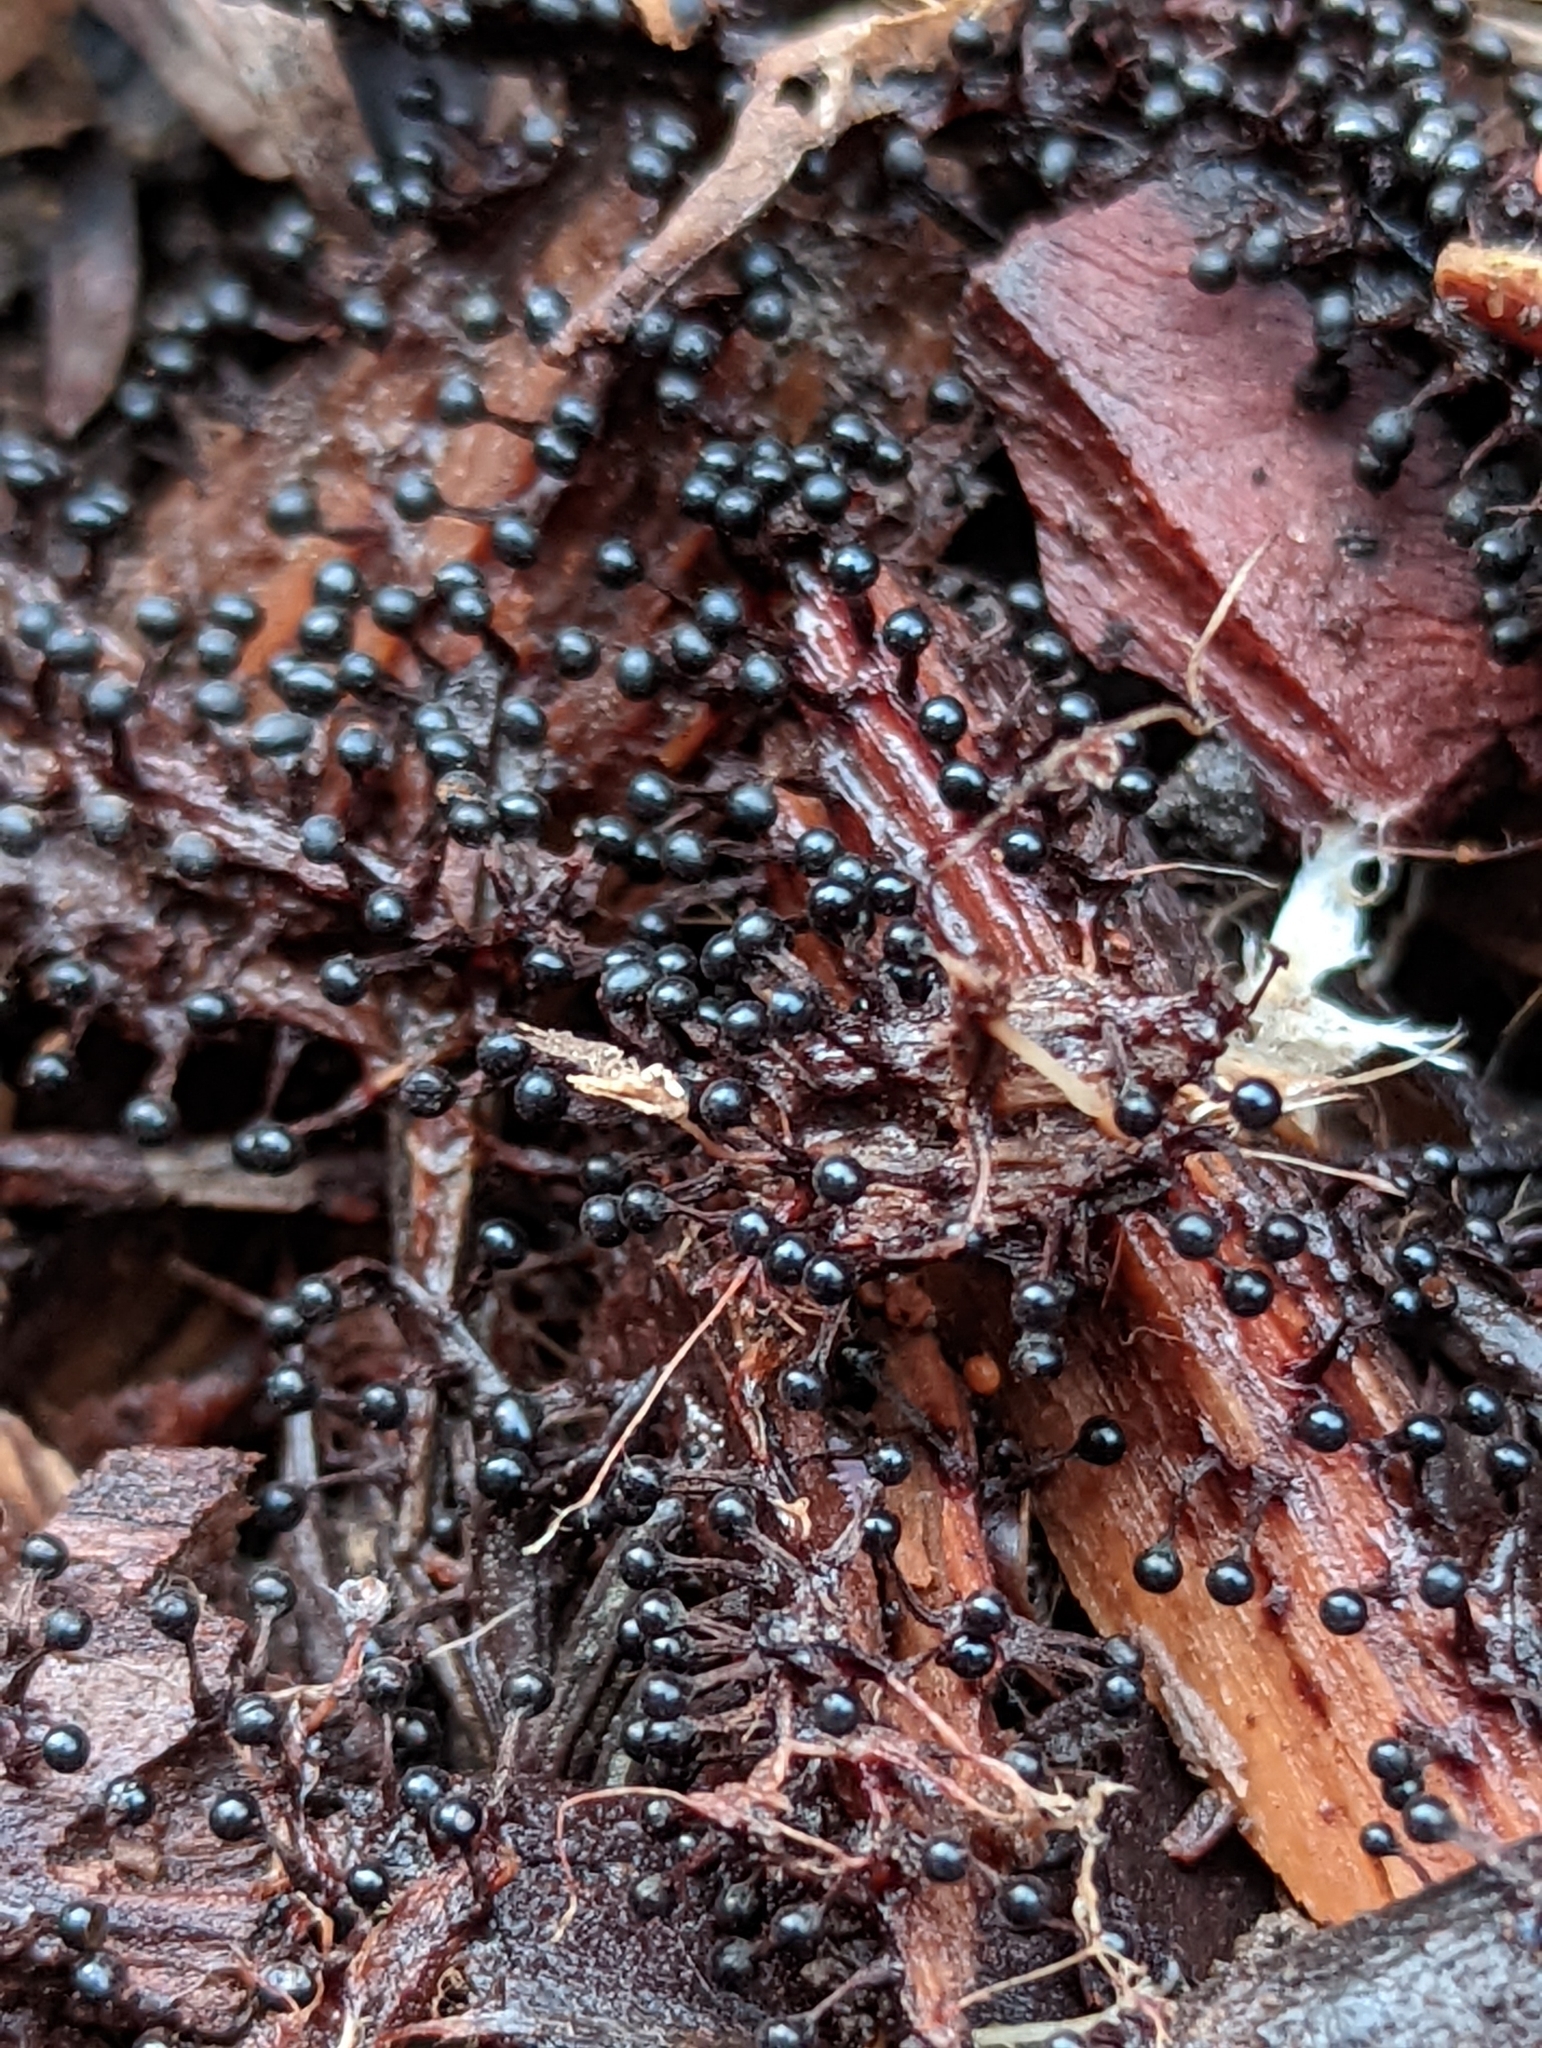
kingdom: Protozoa
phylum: Mycetozoa
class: Myxomycetes
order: Trichiales
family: Trichiaceae
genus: Metatrichia
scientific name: Metatrichia floriformis
